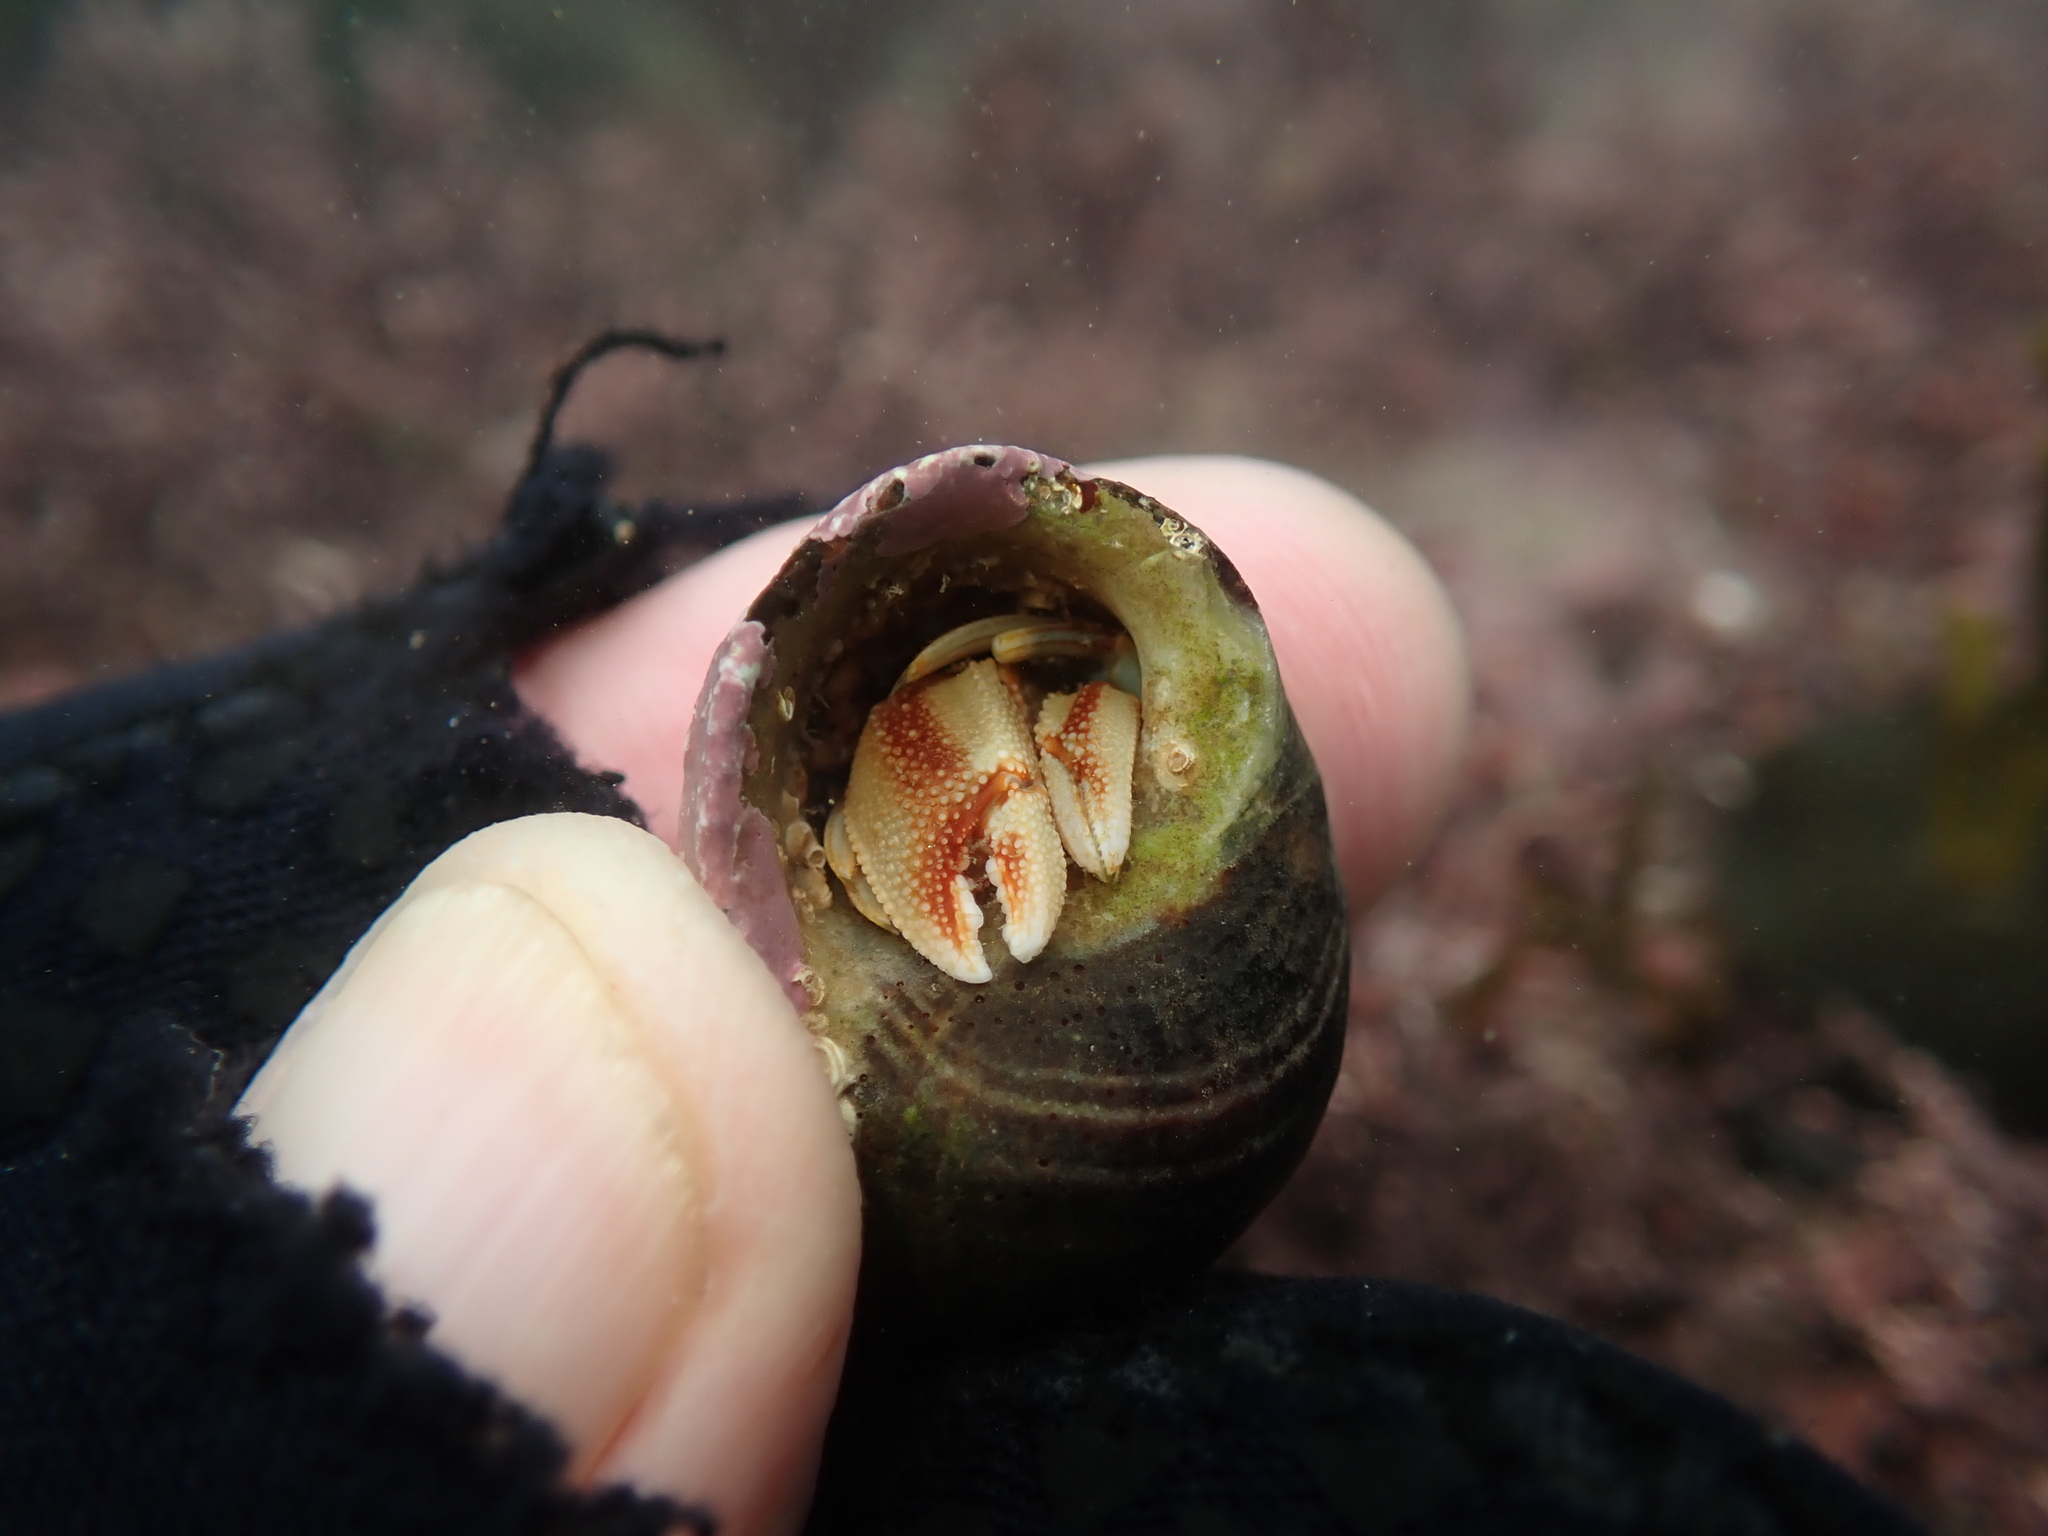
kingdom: Animalia
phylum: Arthropoda
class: Malacostraca
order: Decapoda
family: Paguridae
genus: Pagurus
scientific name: Pagurus bernhardus
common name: Hermit crab
